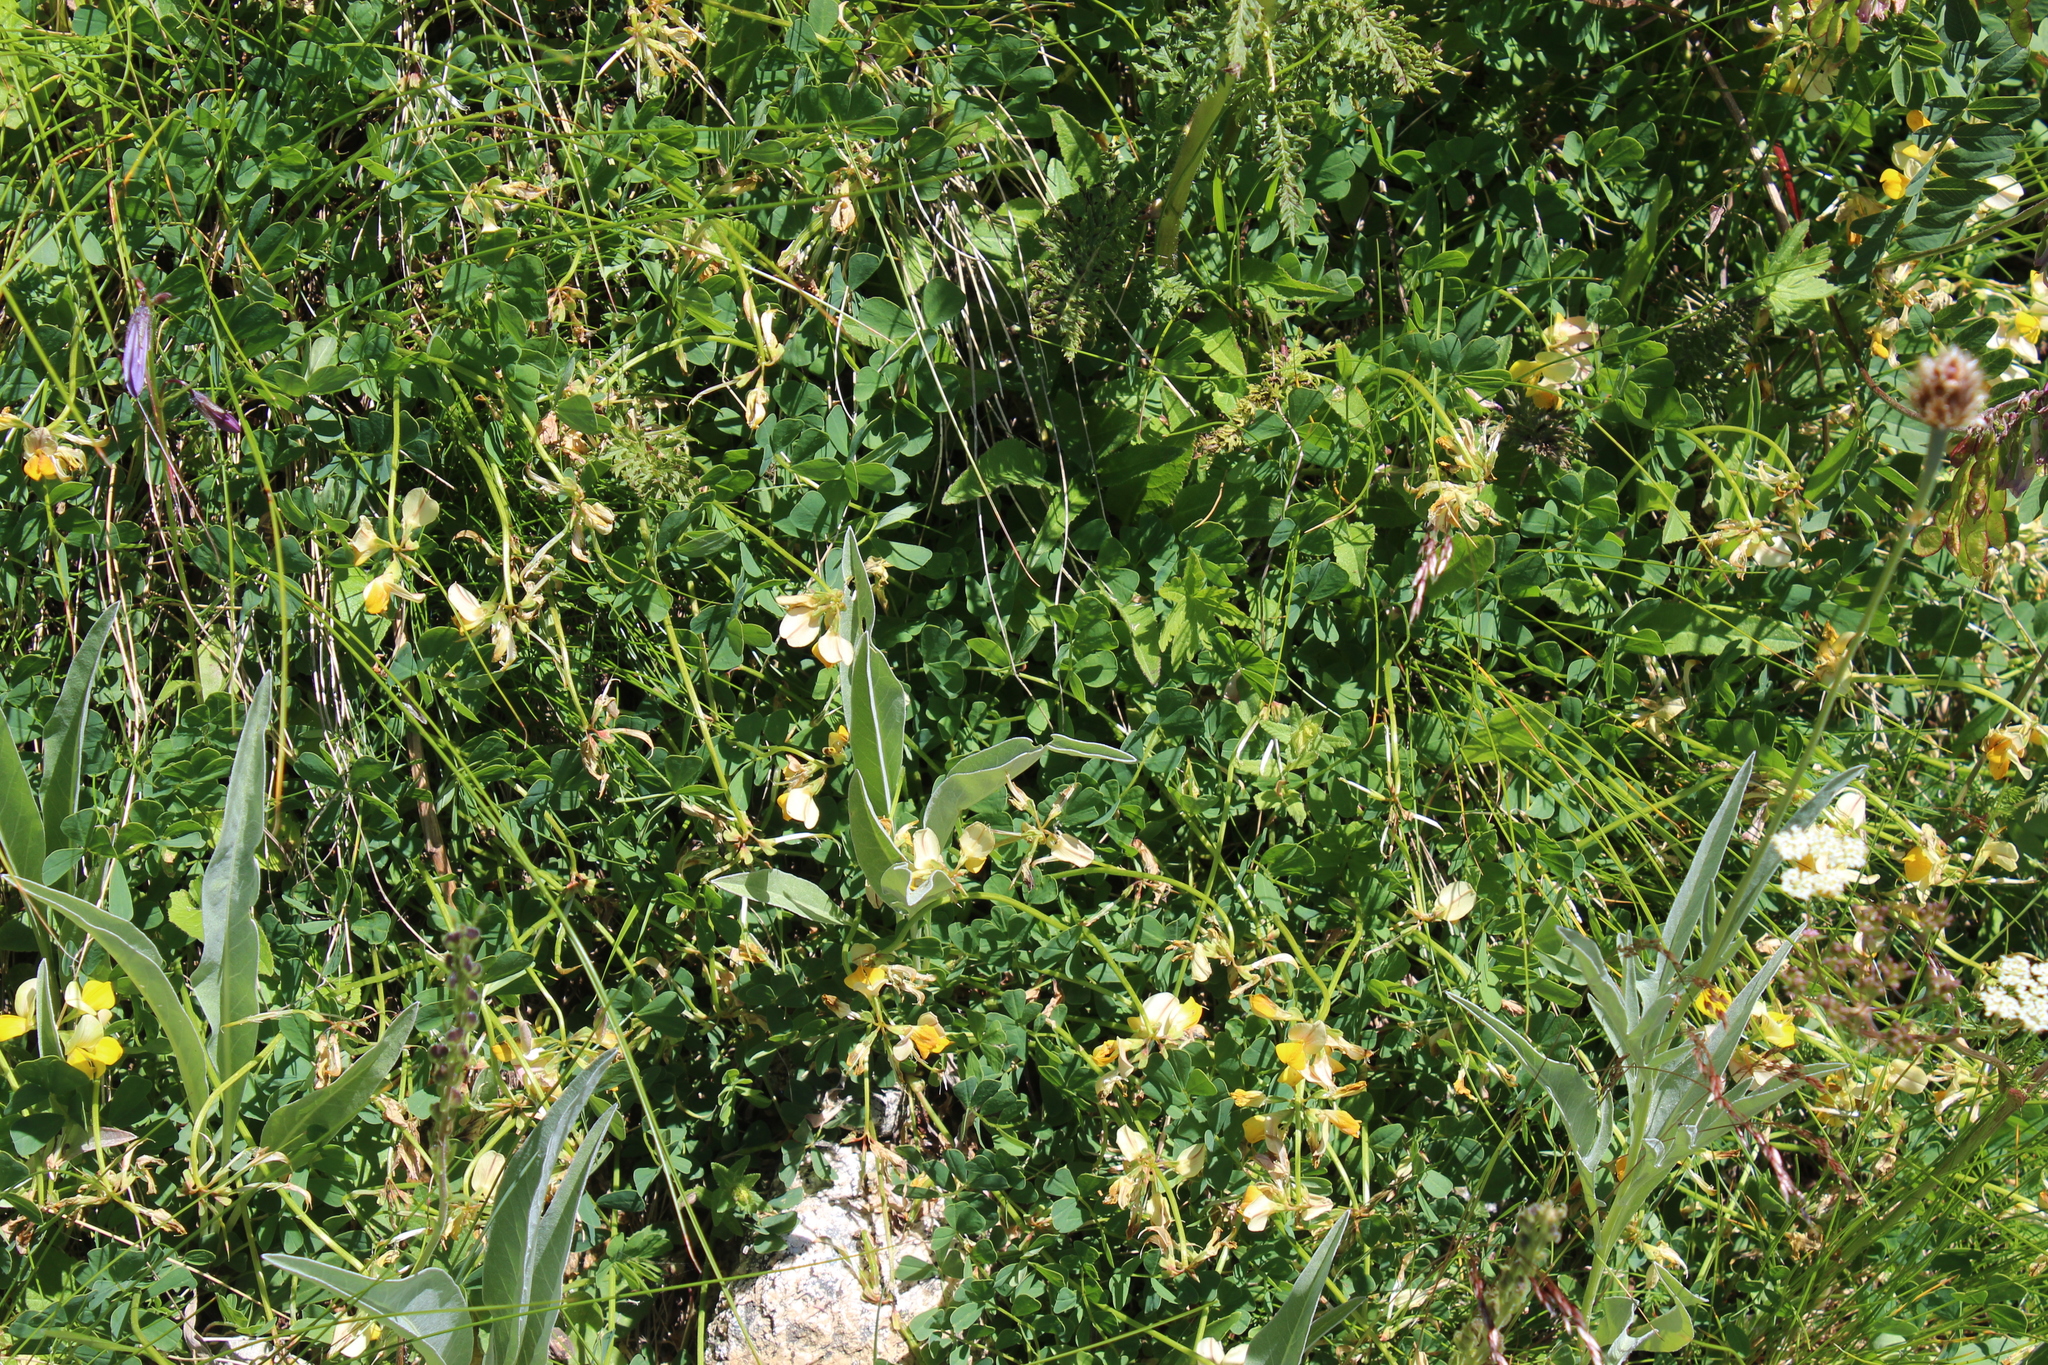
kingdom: Plantae
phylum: Tracheophyta
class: Magnoliopsida
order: Fabales
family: Fabaceae
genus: Coronilla
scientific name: Coronilla orientalis
